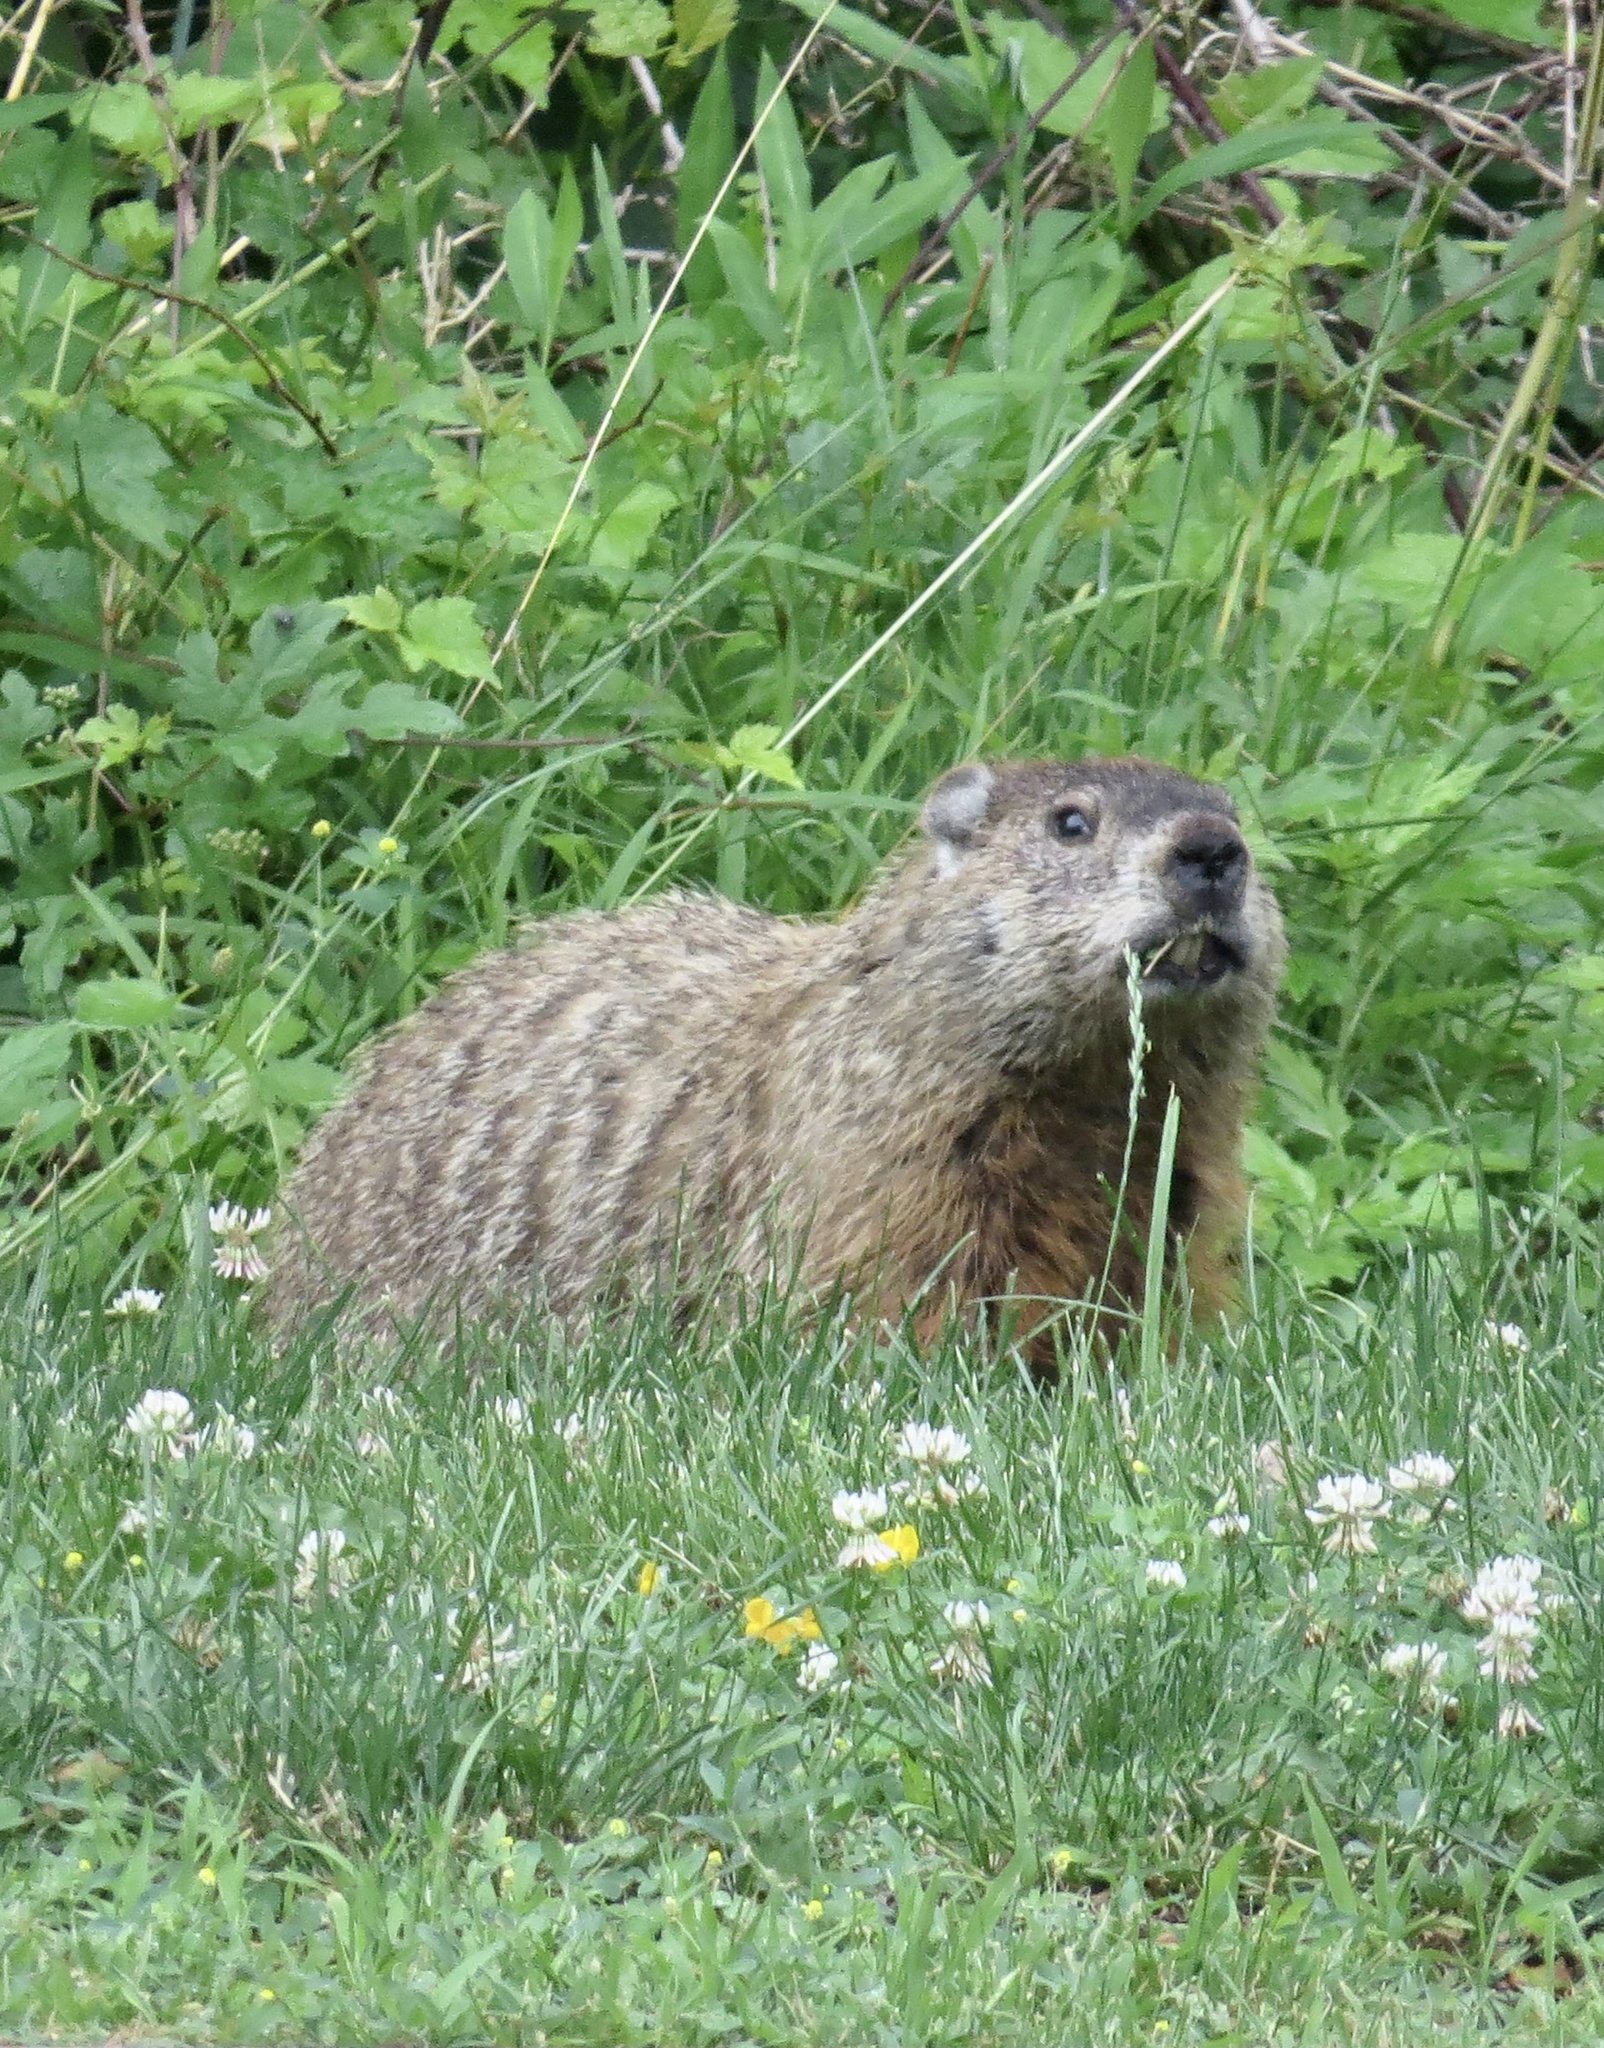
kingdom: Animalia
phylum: Chordata
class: Mammalia
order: Rodentia
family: Sciuridae
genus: Marmota
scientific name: Marmota monax
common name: Groundhog
